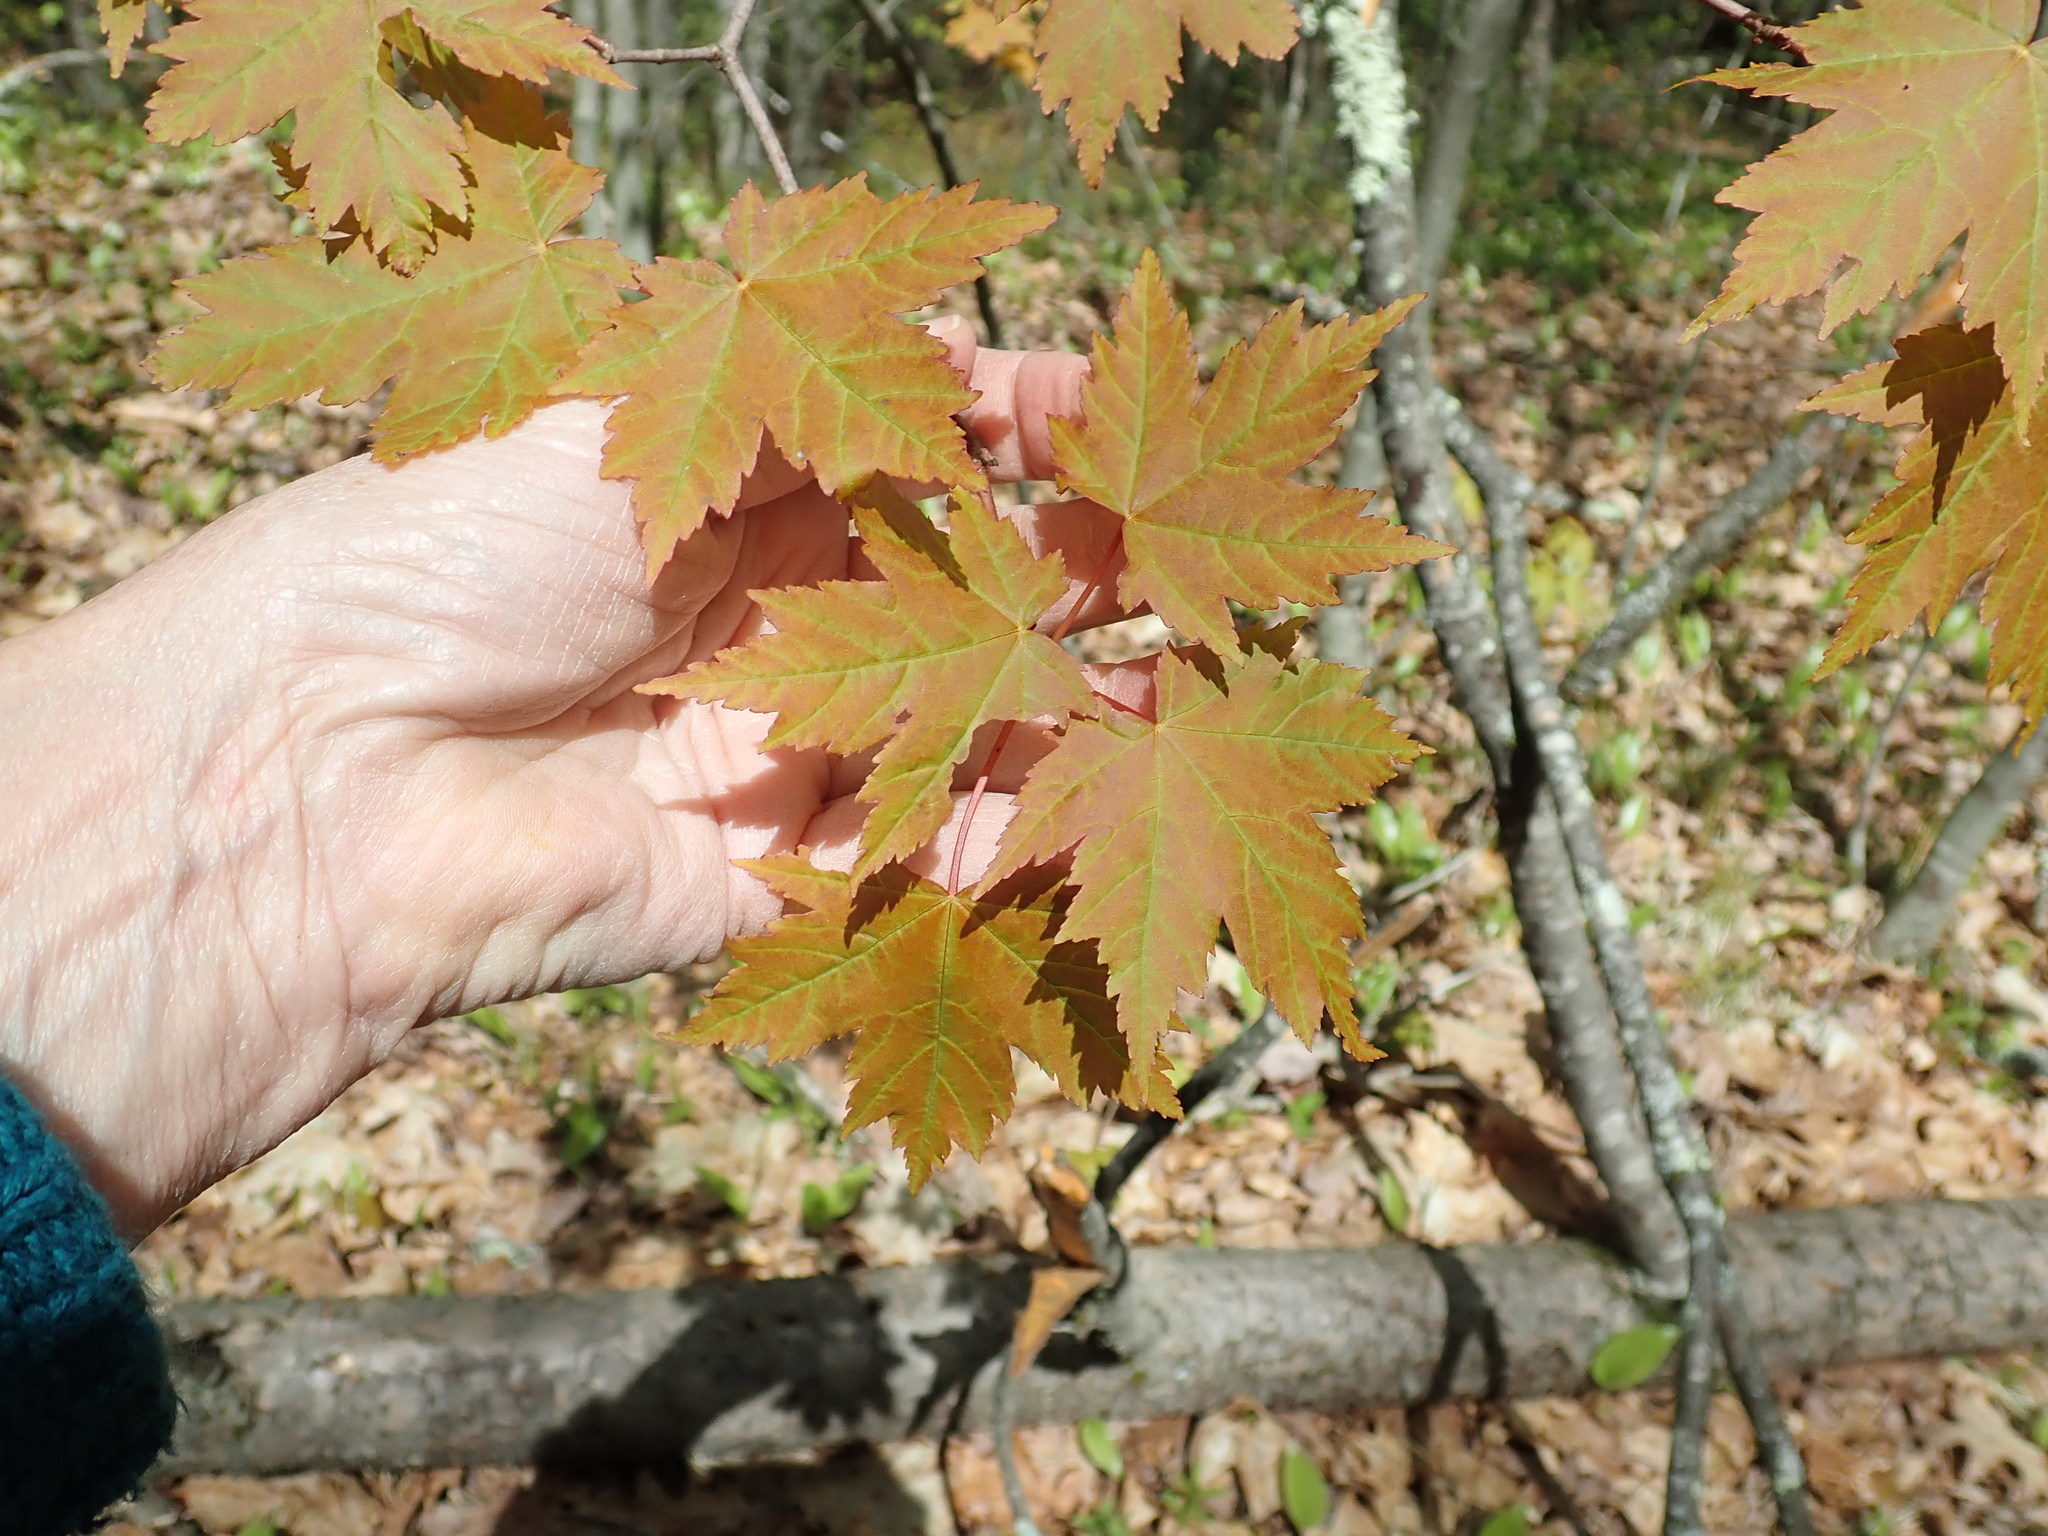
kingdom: Plantae
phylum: Tracheophyta
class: Magnoliopsida
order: Sapindales
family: Sapindaceae
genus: Acer
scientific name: Acer rubrum
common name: Red maple
